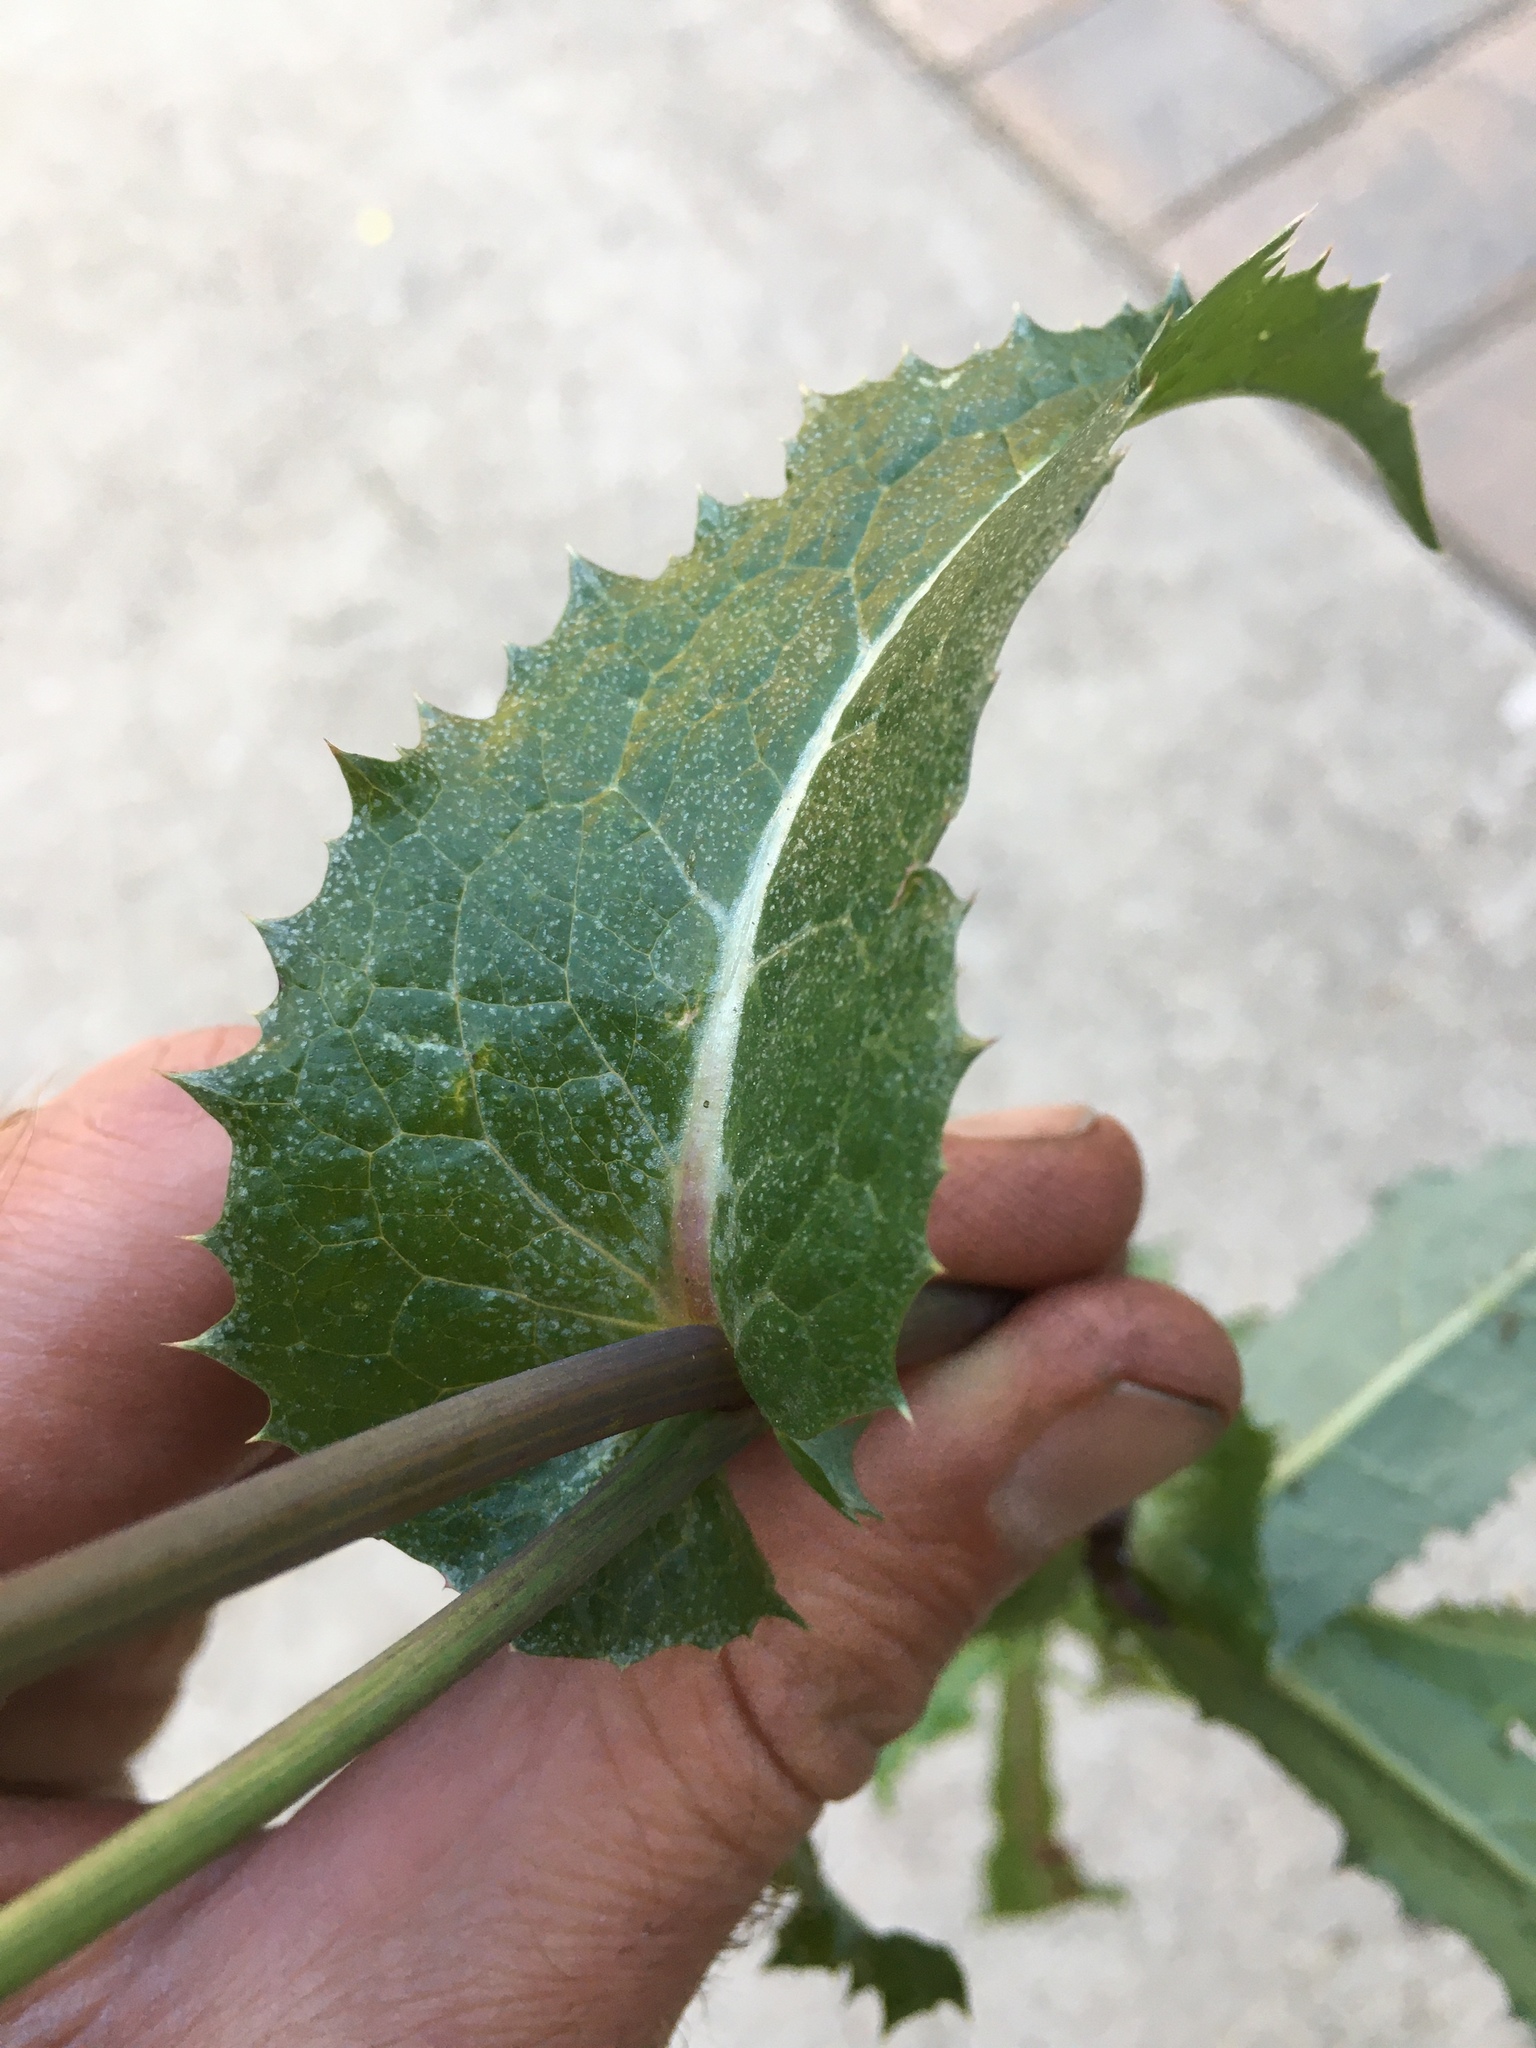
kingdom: Plantae
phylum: Tracheophyta
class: Magnoliopsida
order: Asterales
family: Asteraceae
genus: Sonchus
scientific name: Sonchus asper
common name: Prickly sow-thistle
